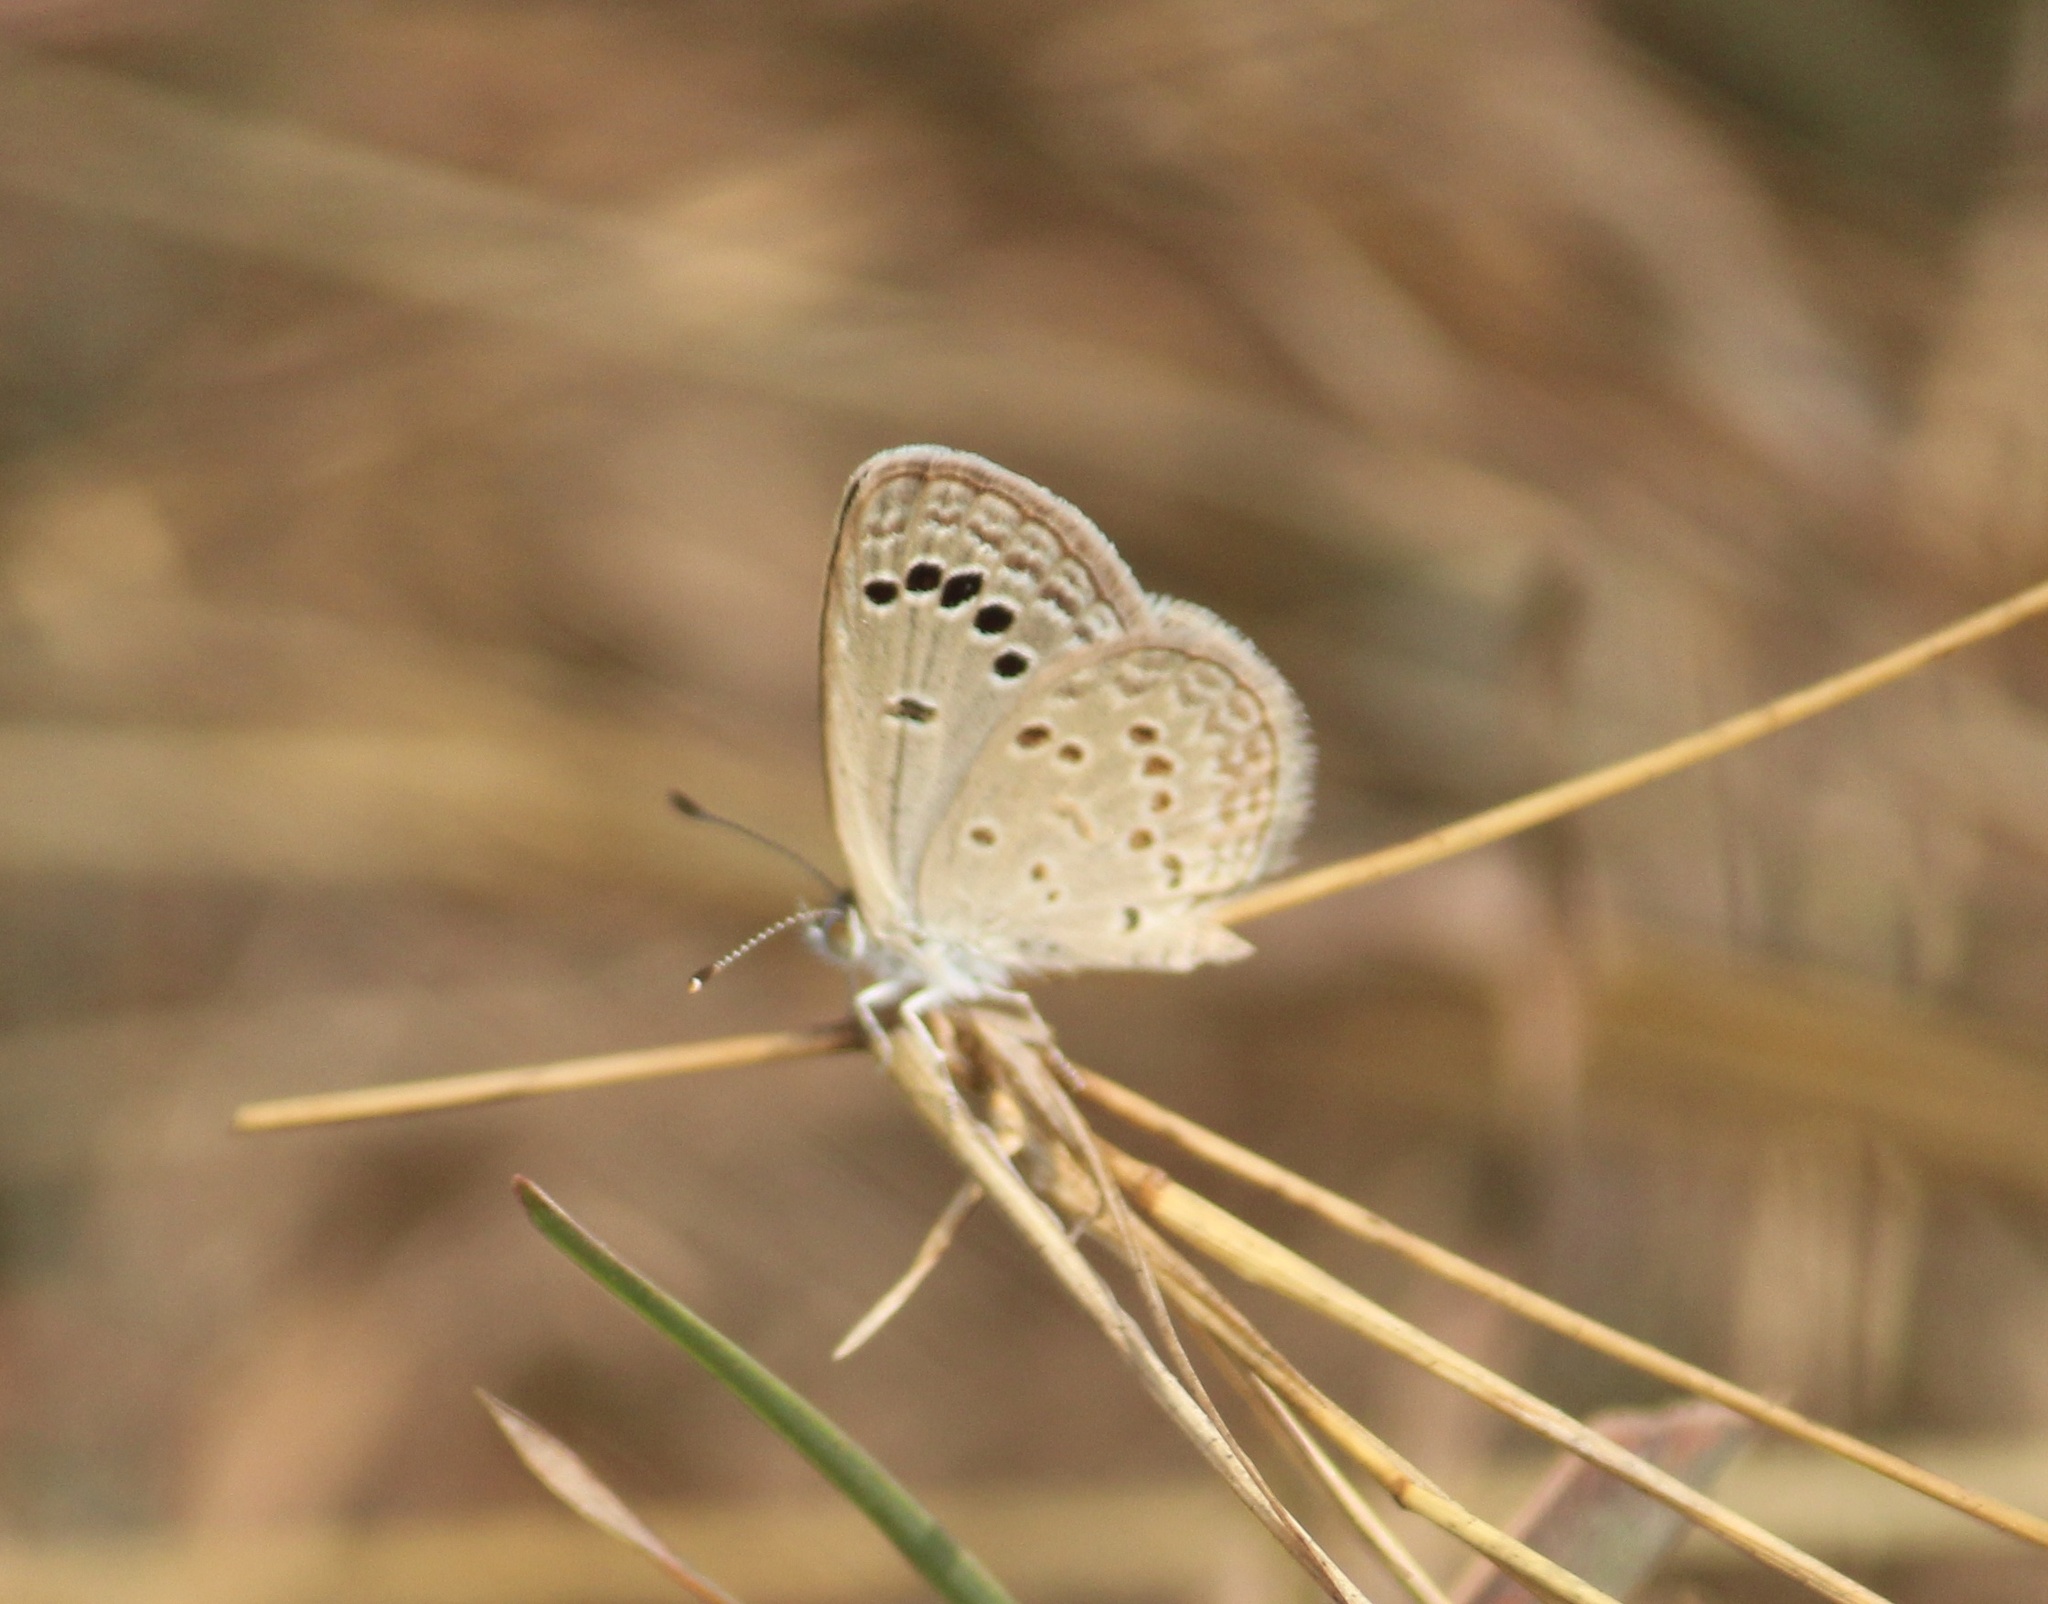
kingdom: Animalia
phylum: Arthropoda
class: Insecta
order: Lepidoptera
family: Lycaenidae
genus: Zizina
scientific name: Zizina otis
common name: Lesser grass blue
